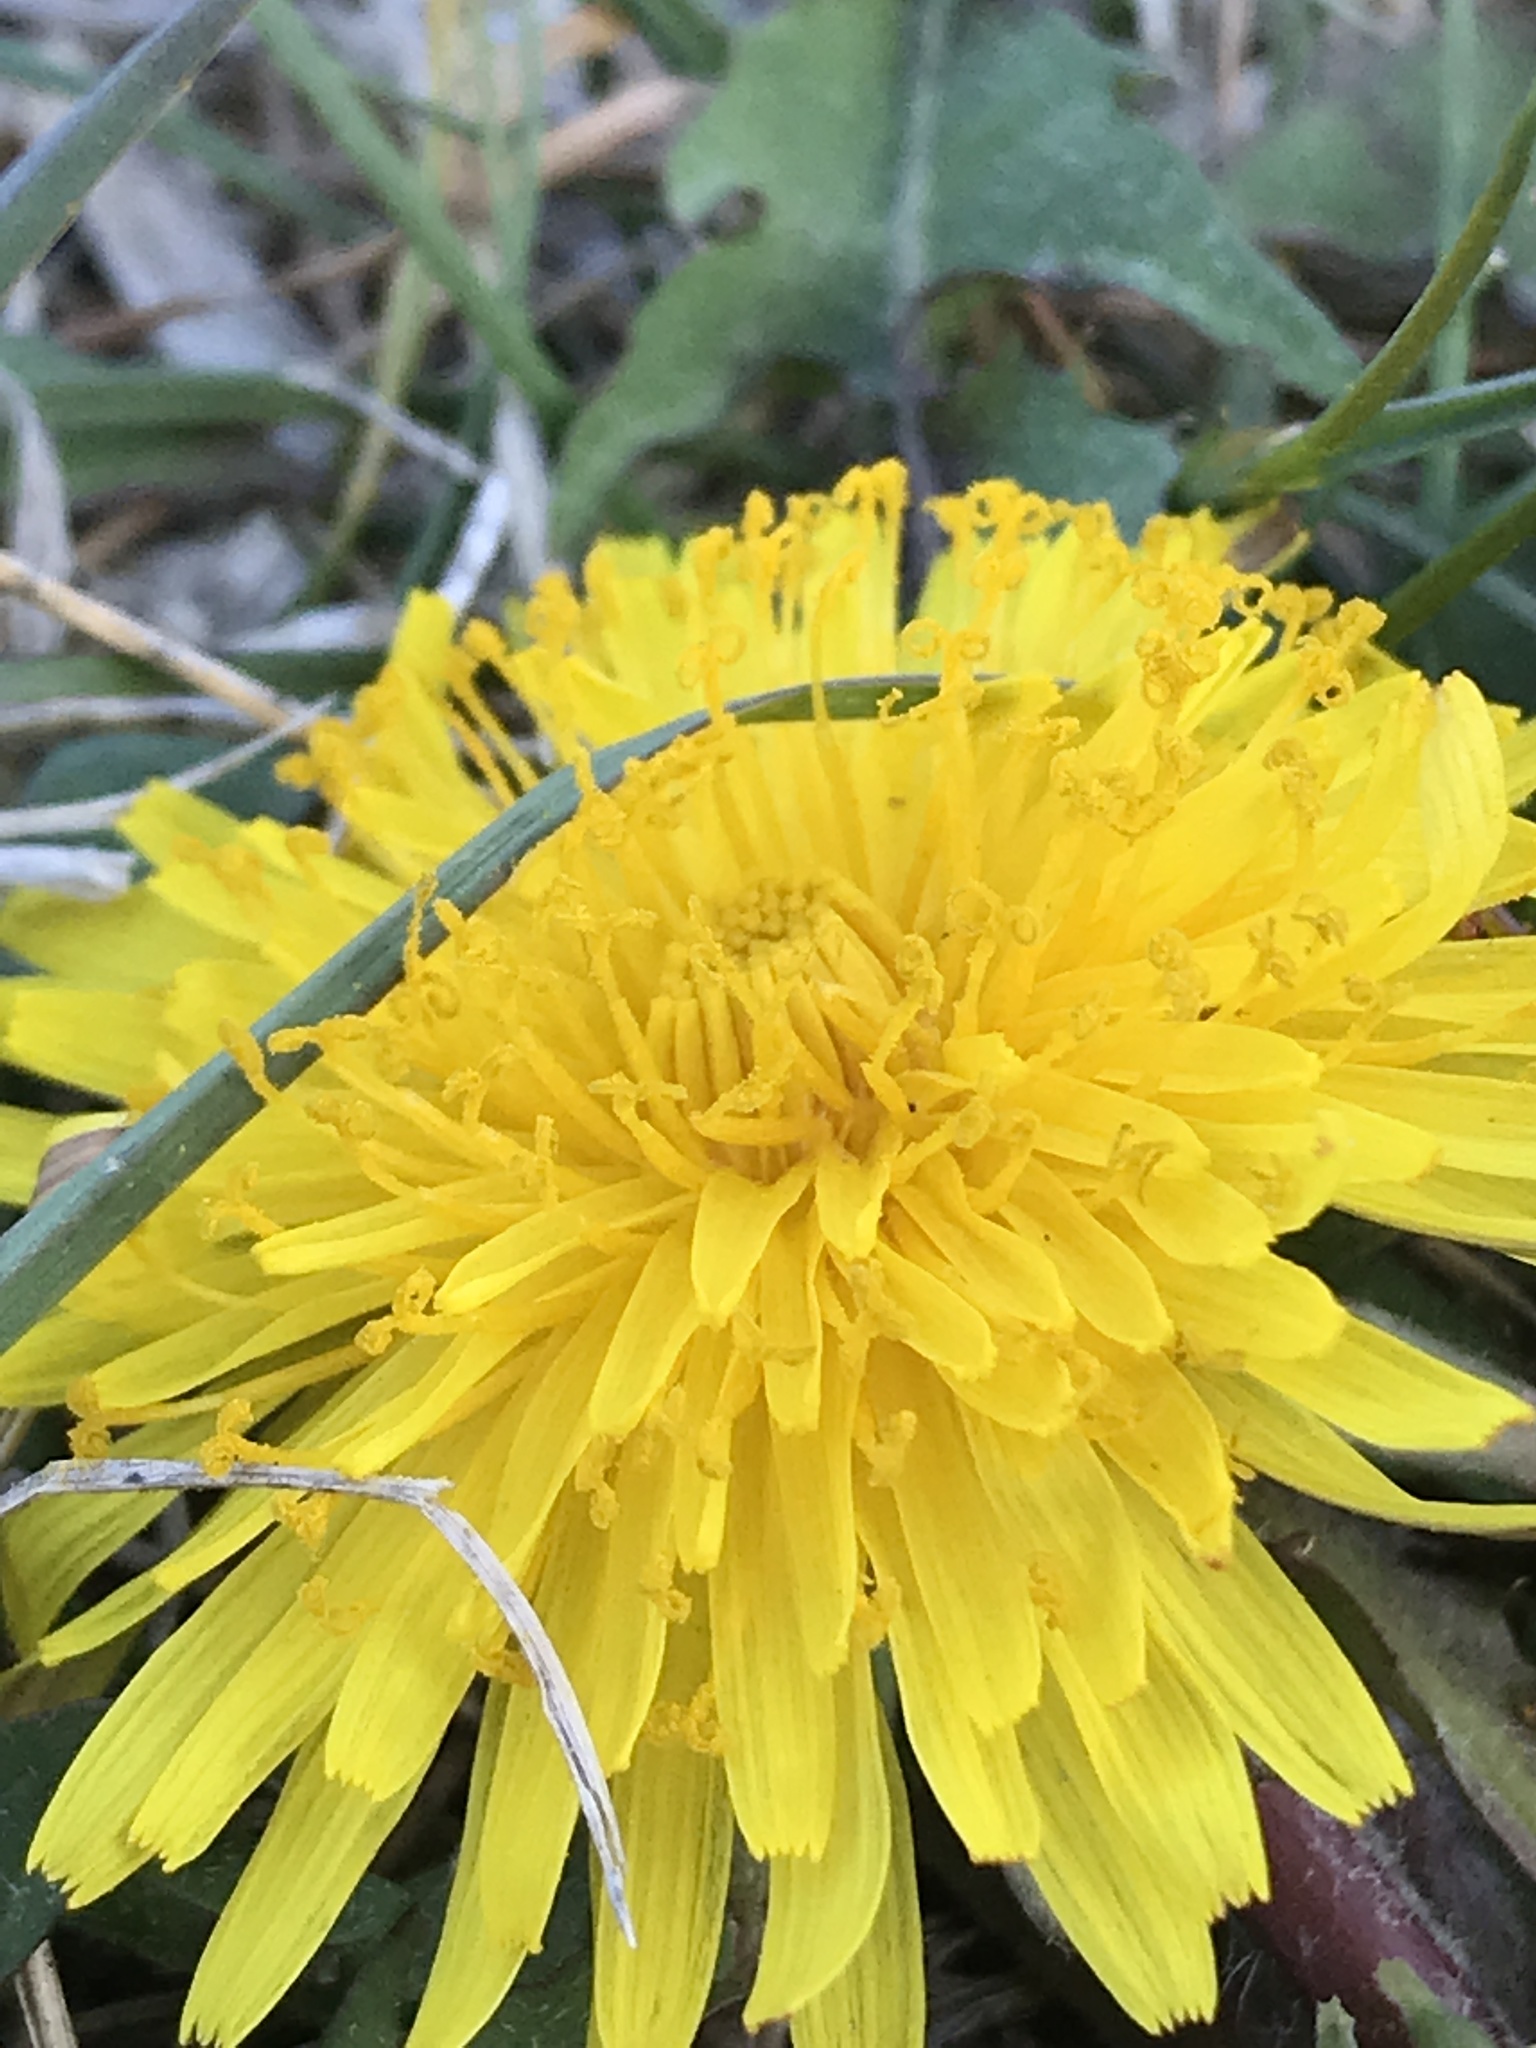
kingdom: Plantae
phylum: Tracheophyta
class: Magnoliopsida
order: Asterales
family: Asteraceae
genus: Taraxacum
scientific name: Taraxacum officinale
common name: Common dandelion
